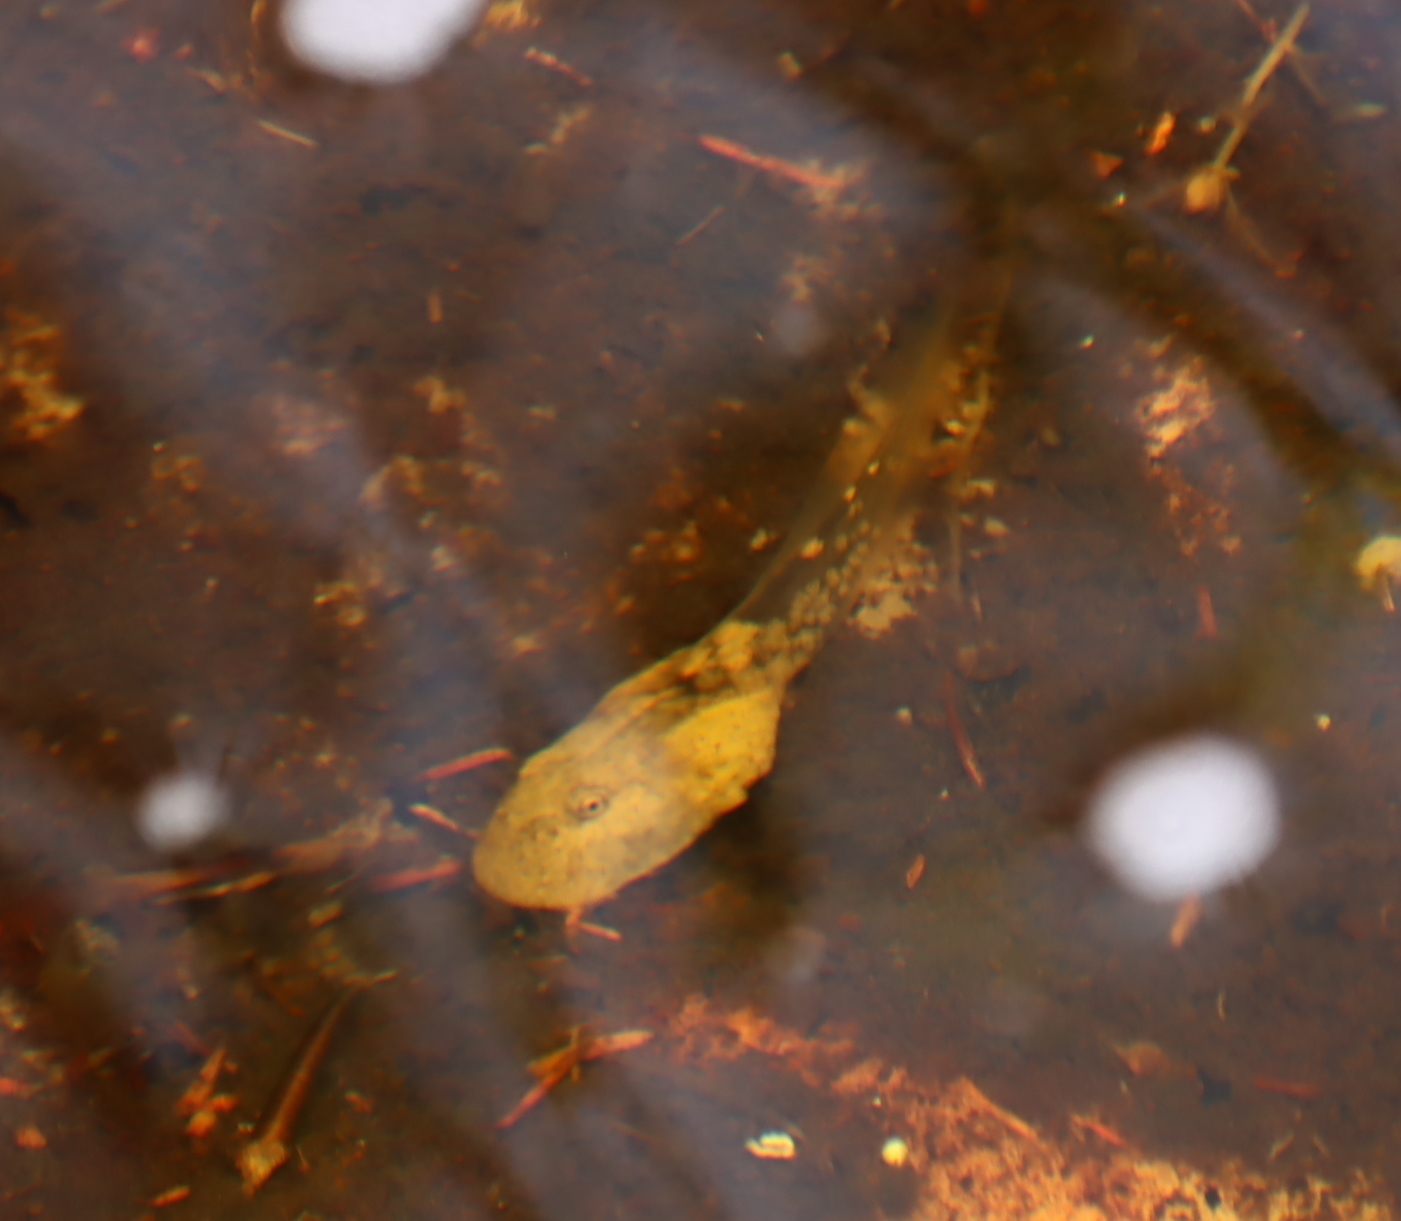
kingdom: Animalia
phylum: Chordata
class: Amphibia
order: Anura
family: Heleophrynidae
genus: Heleophryne
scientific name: Heleophryne purcelli
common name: Purcell's ghost frog
